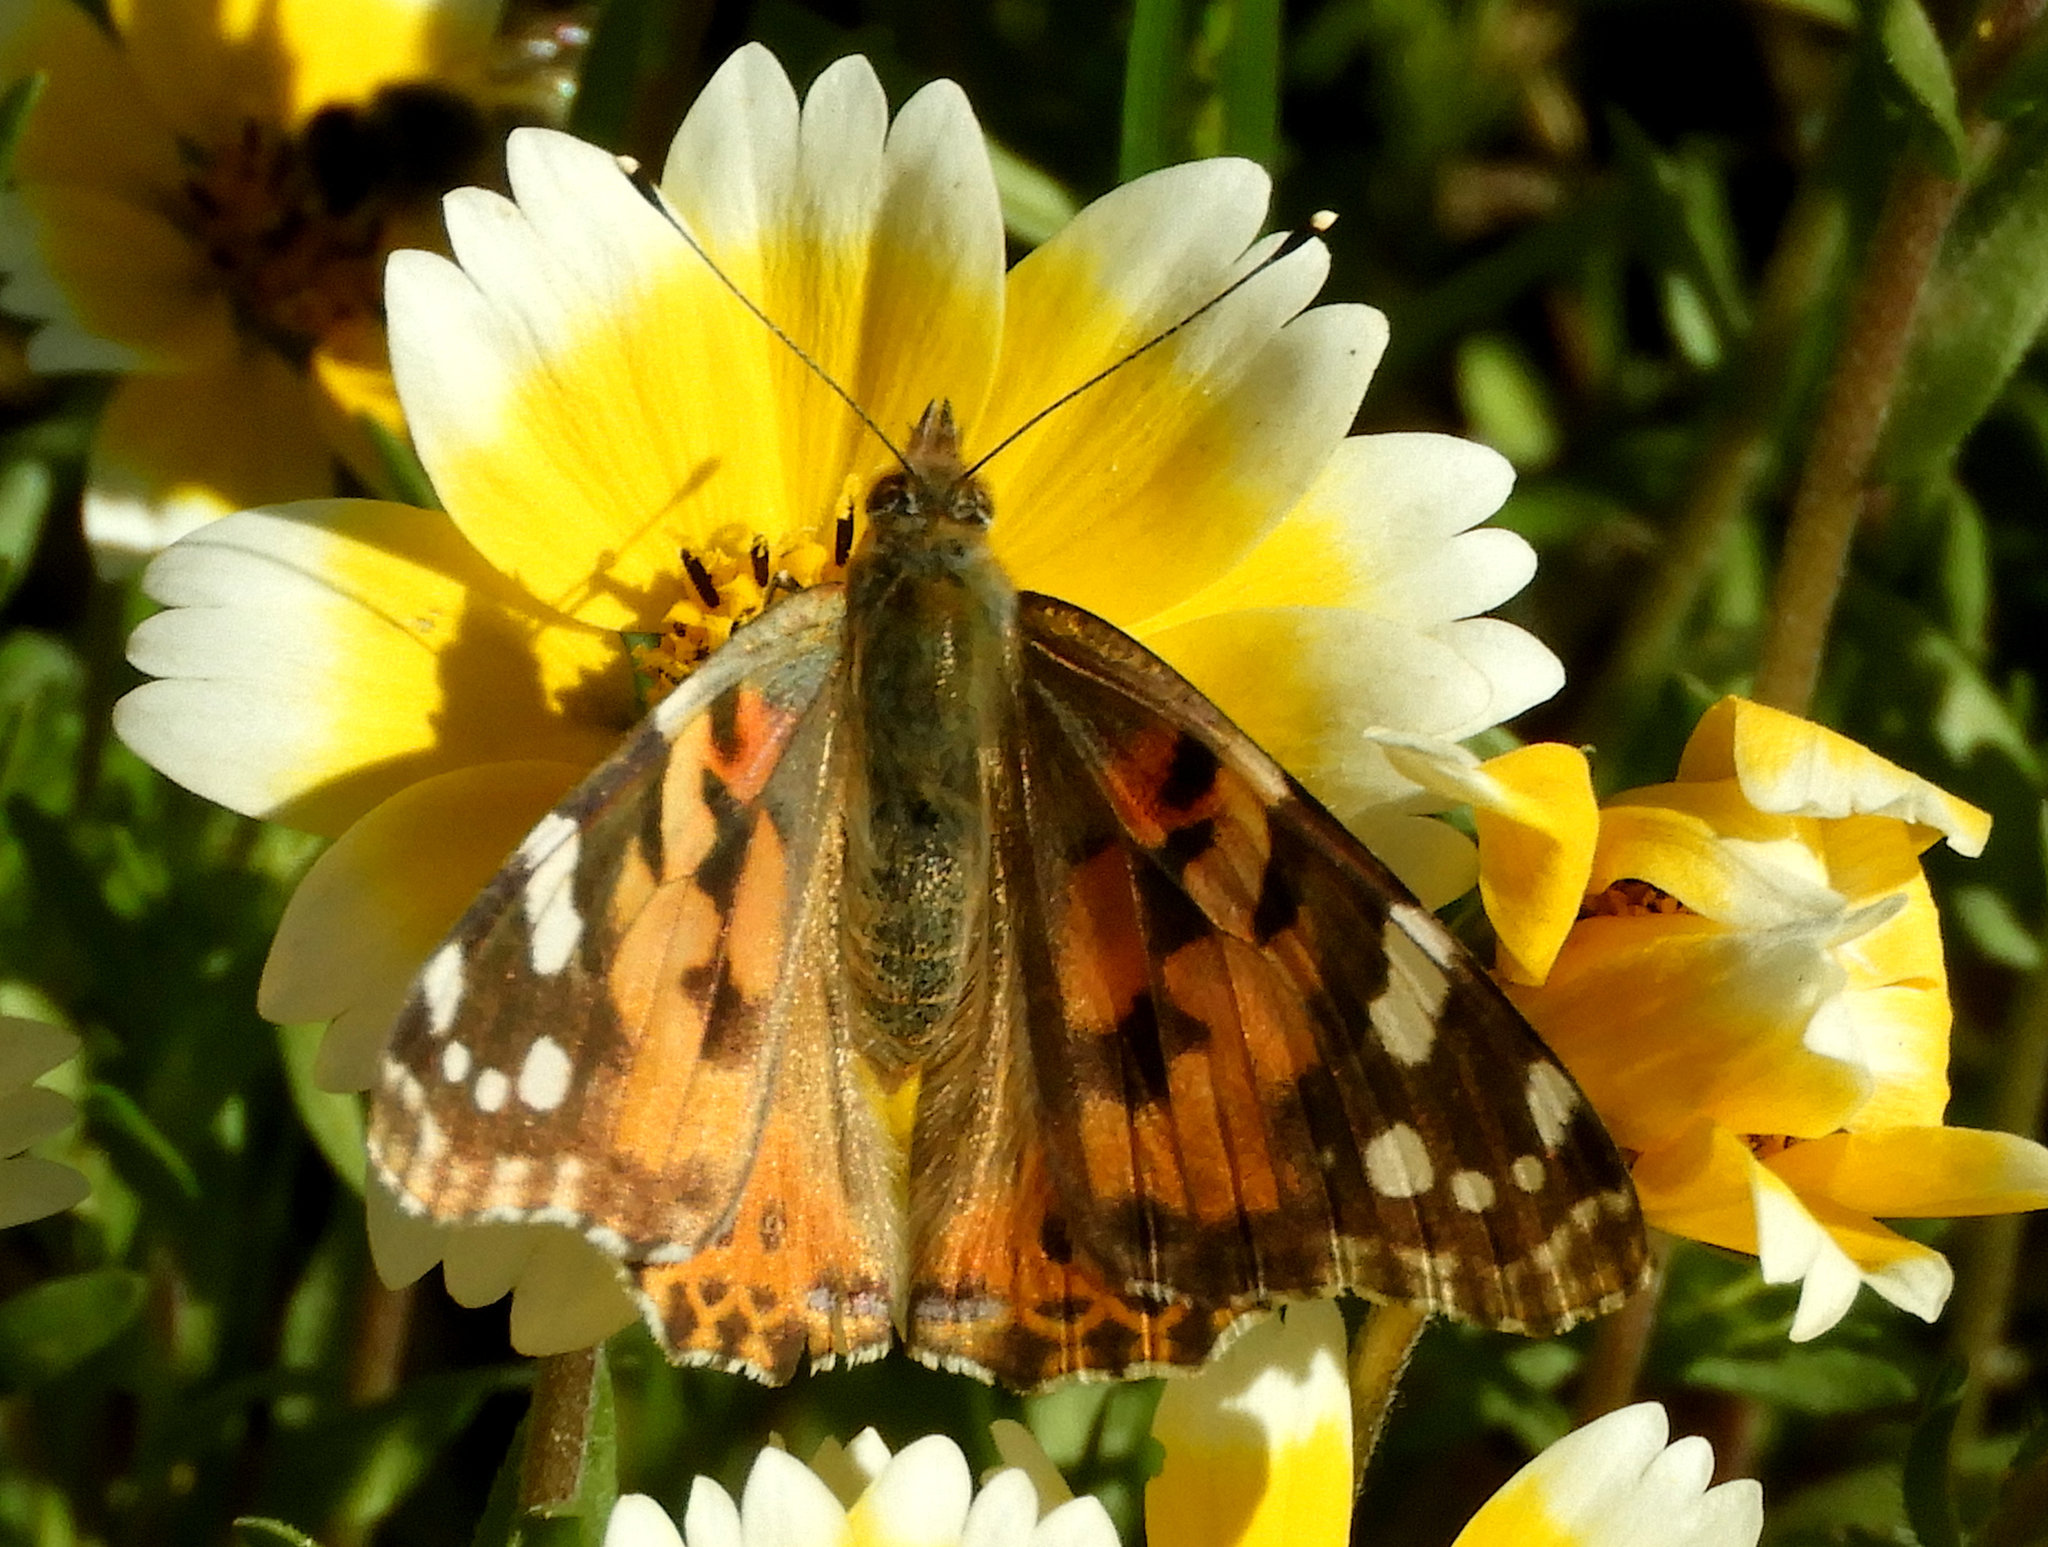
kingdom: Animalia
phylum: Arthropoda
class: Insecta
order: Lepidoptera
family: Nymphalidae
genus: Vanessa
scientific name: Vanessa cardui
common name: Painted lady
